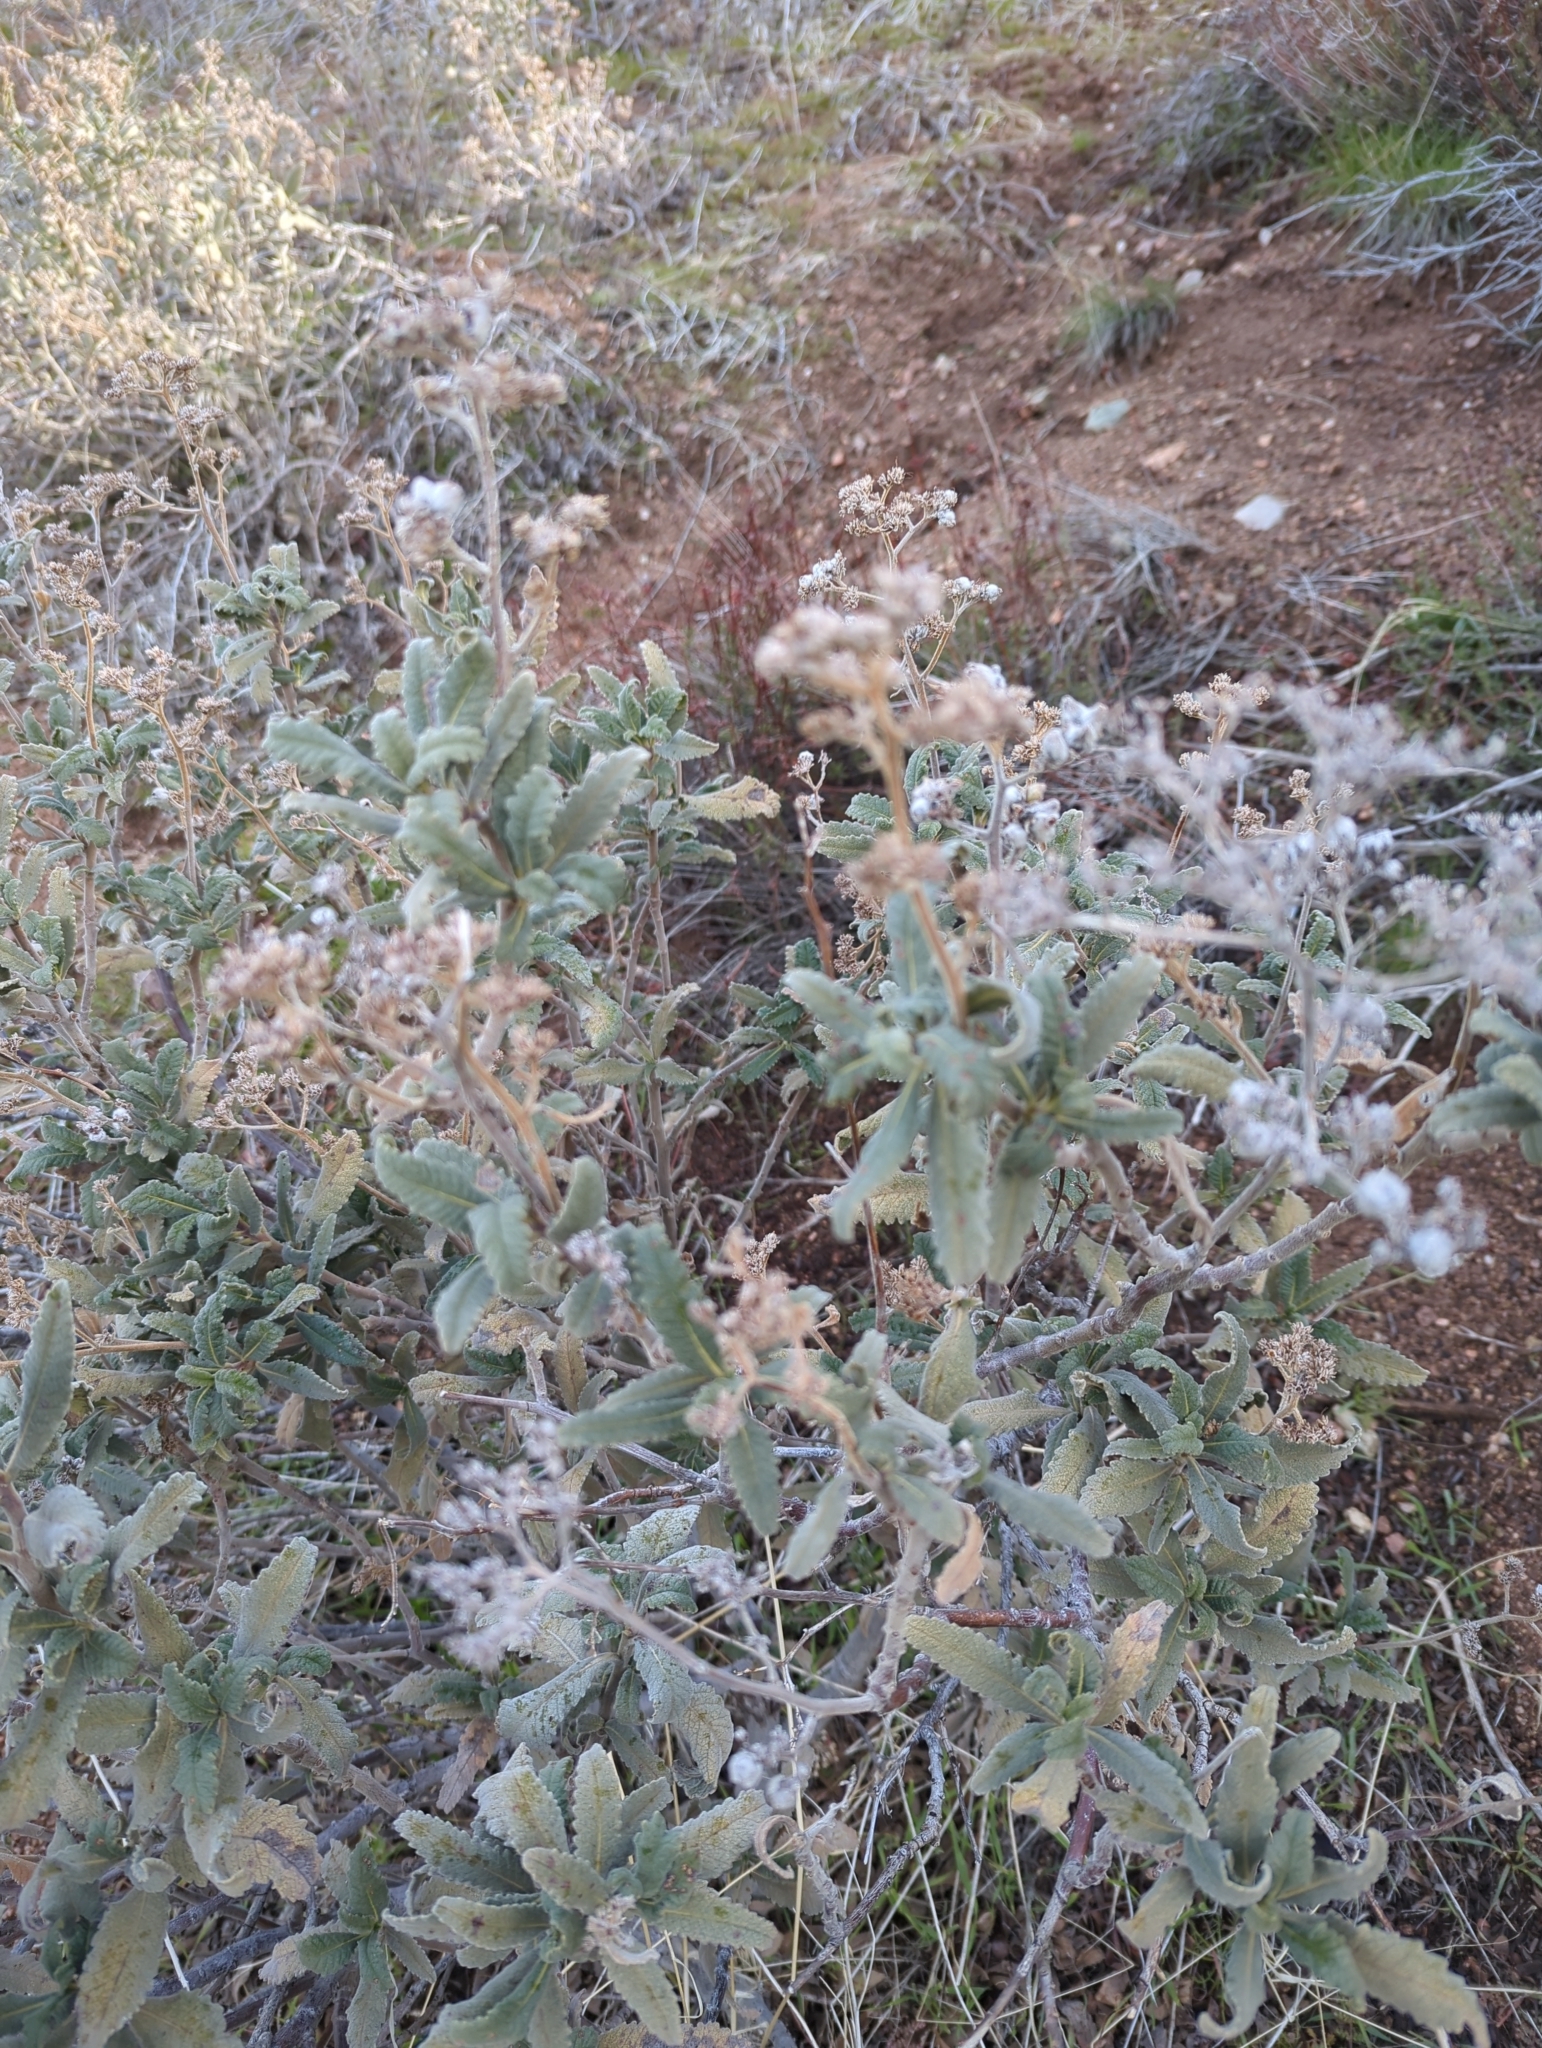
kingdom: Plantae
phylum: Tracheophyta
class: Magnoliopsida
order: Boraginales
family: Namaceae
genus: Eriodictyon
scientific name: Eriodictyon crassifolium
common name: Thick-leaf yerba-santa
